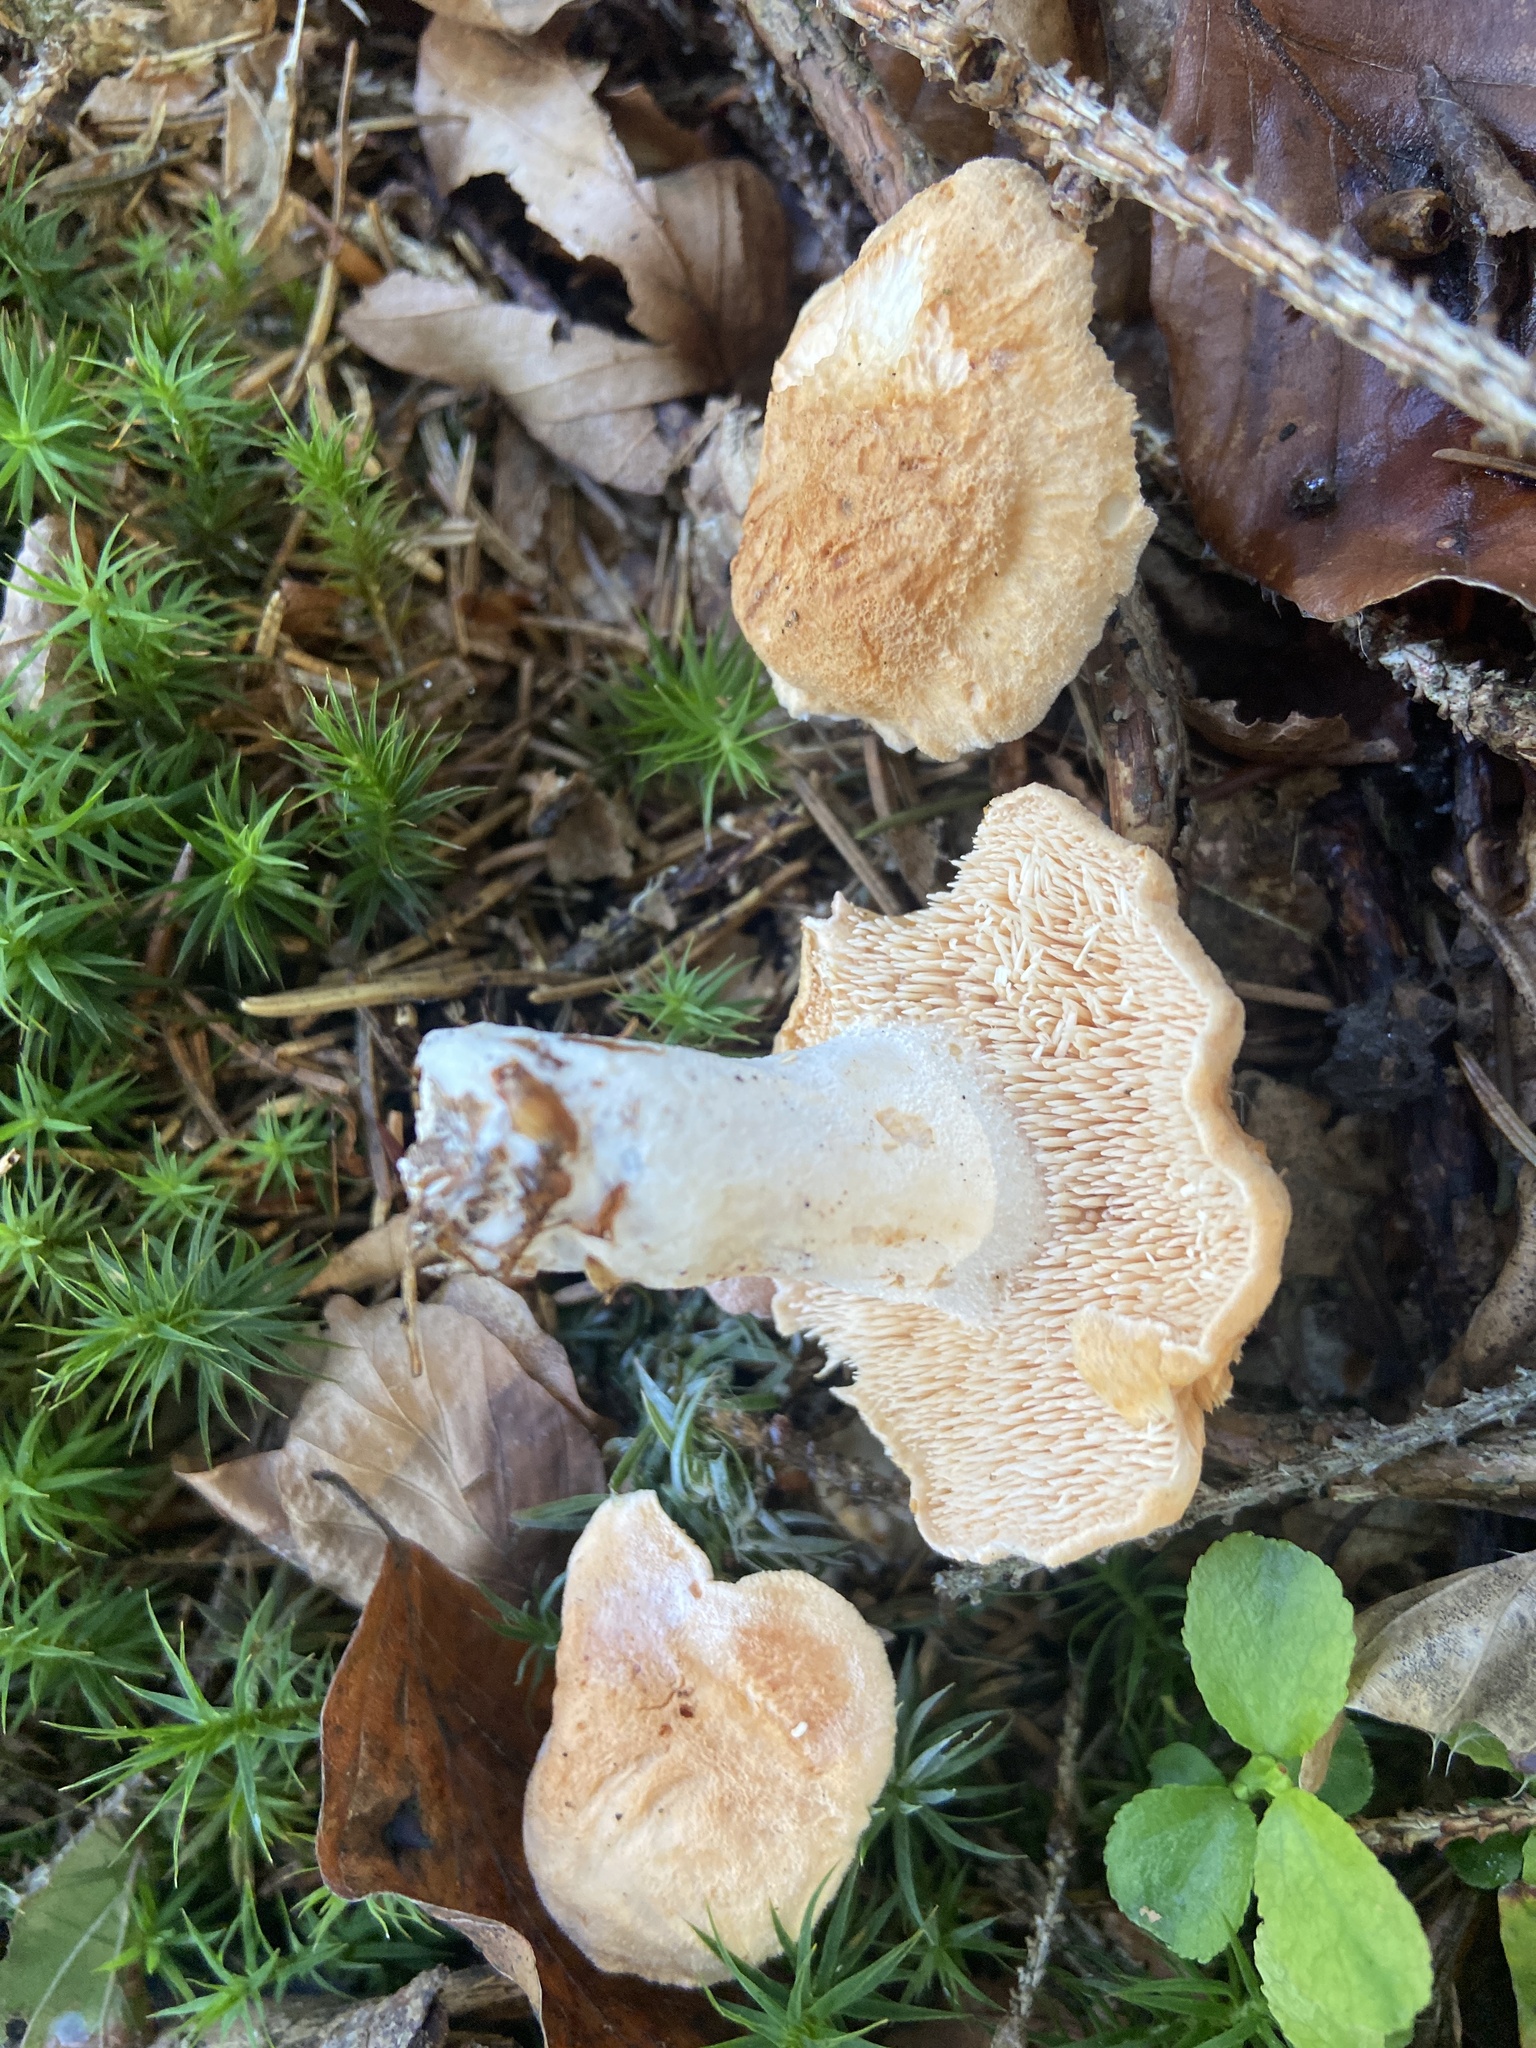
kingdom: Fungi
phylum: Basidiomycota
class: Agaricomycetes
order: Cantharellales
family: Hydnaceae
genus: Hydnum
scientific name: Hydnum repandum
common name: Wood hedgehog
